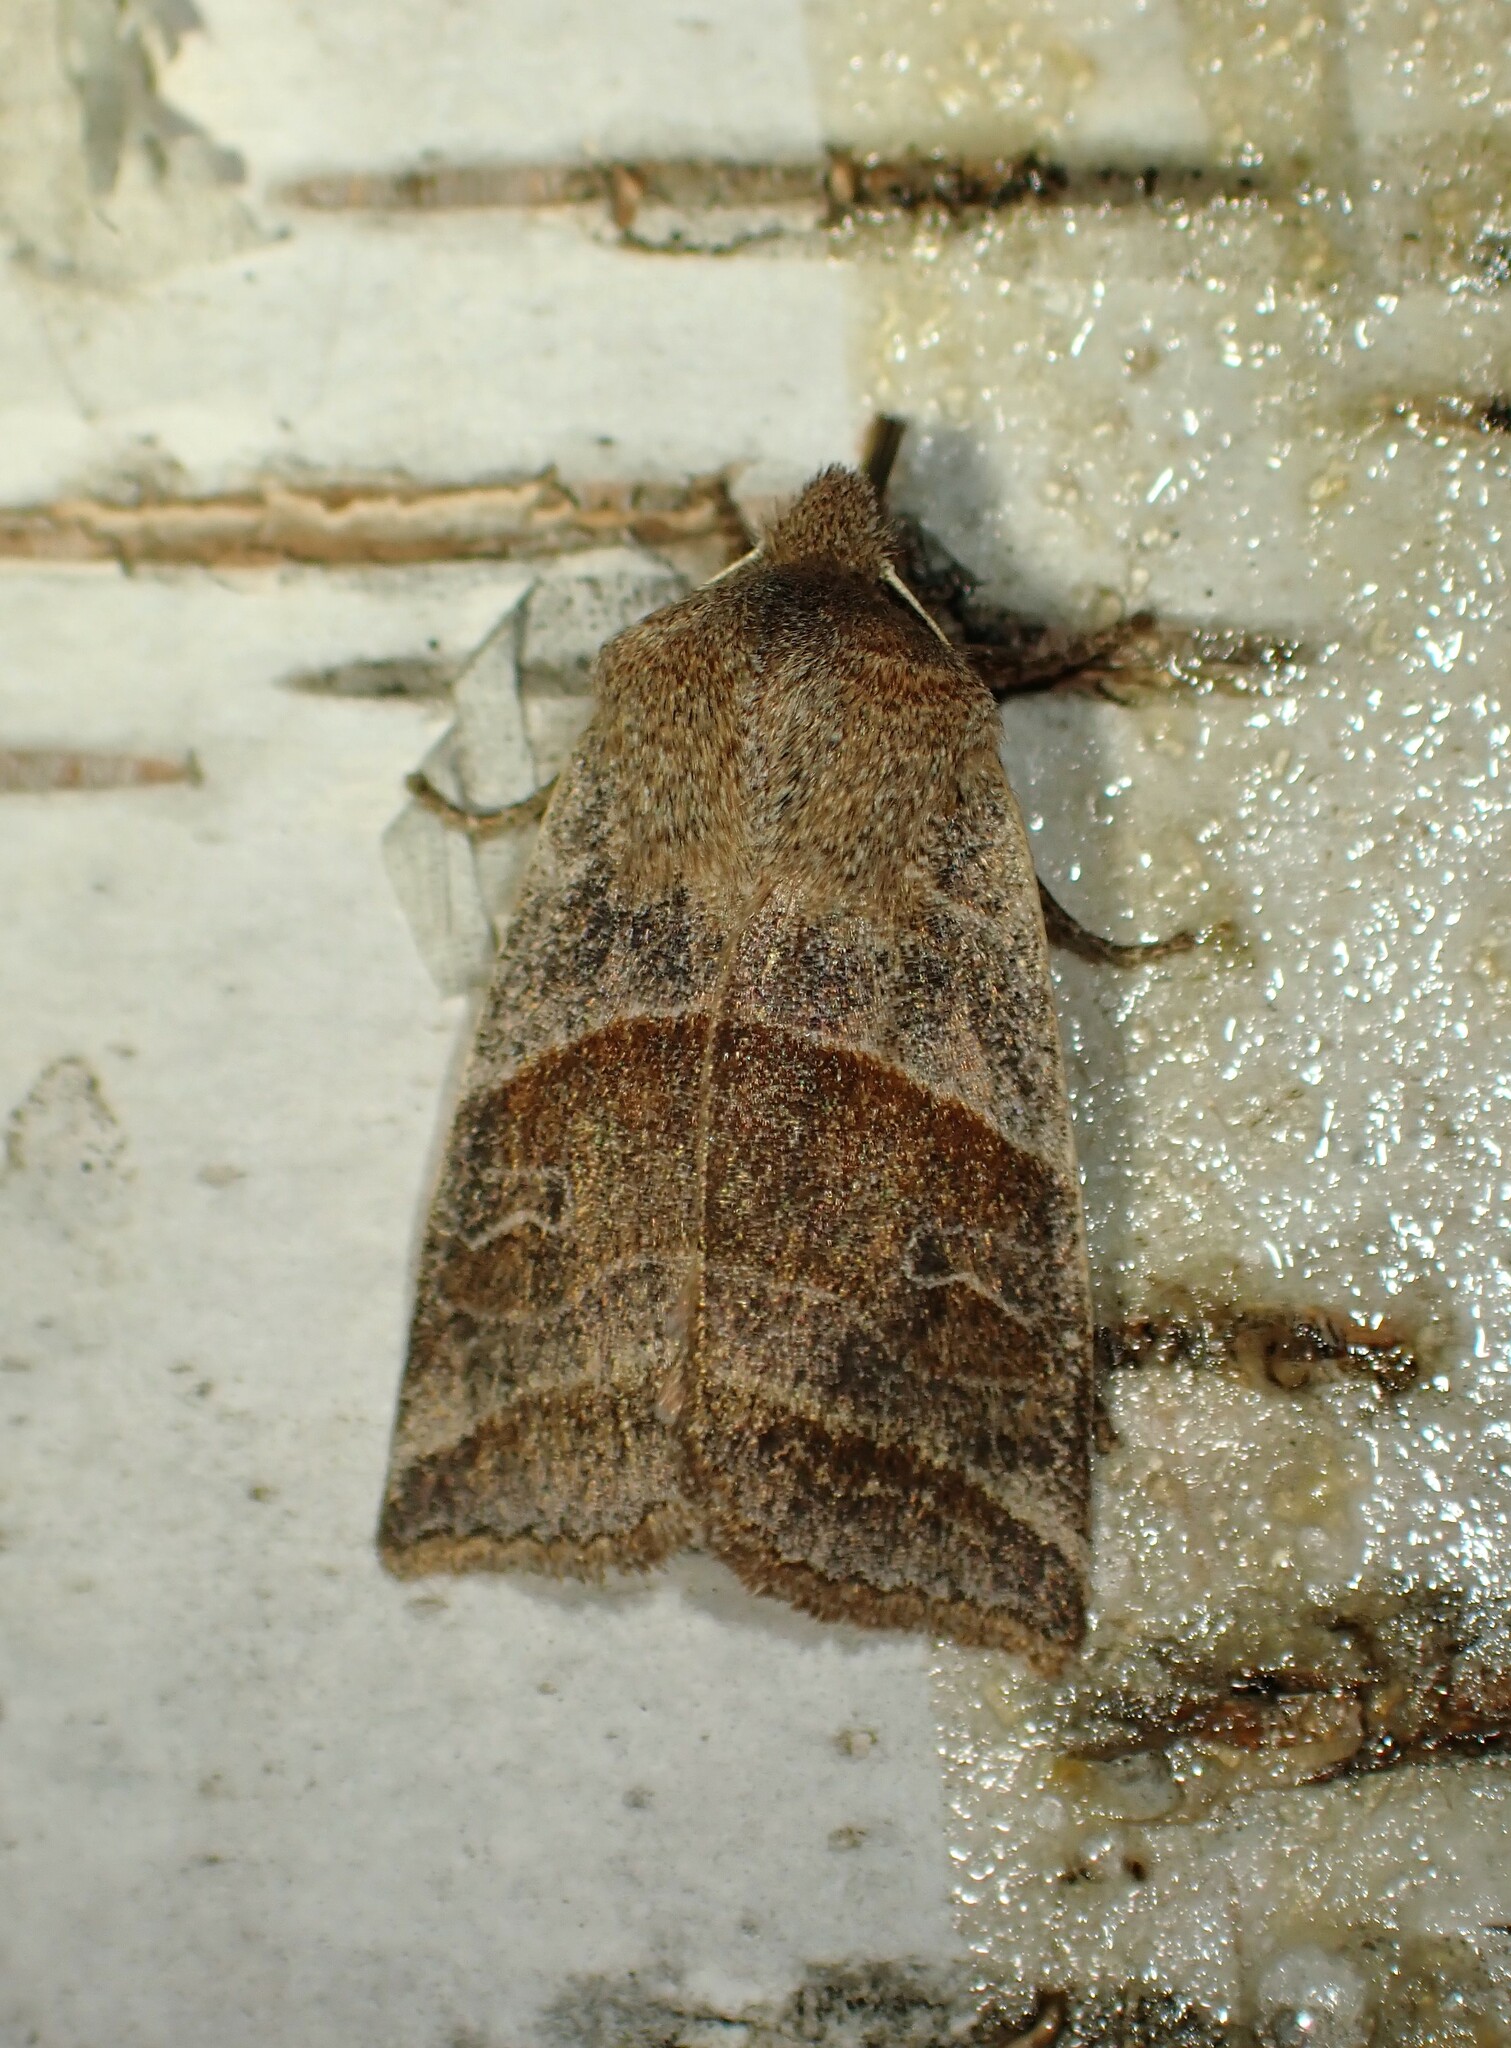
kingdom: Animalia
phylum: Arthropoda
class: Insecta
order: Lepidoptera
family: Noctuidae
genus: Eupsilia
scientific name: Eupsilia devia
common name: Lost sallow
